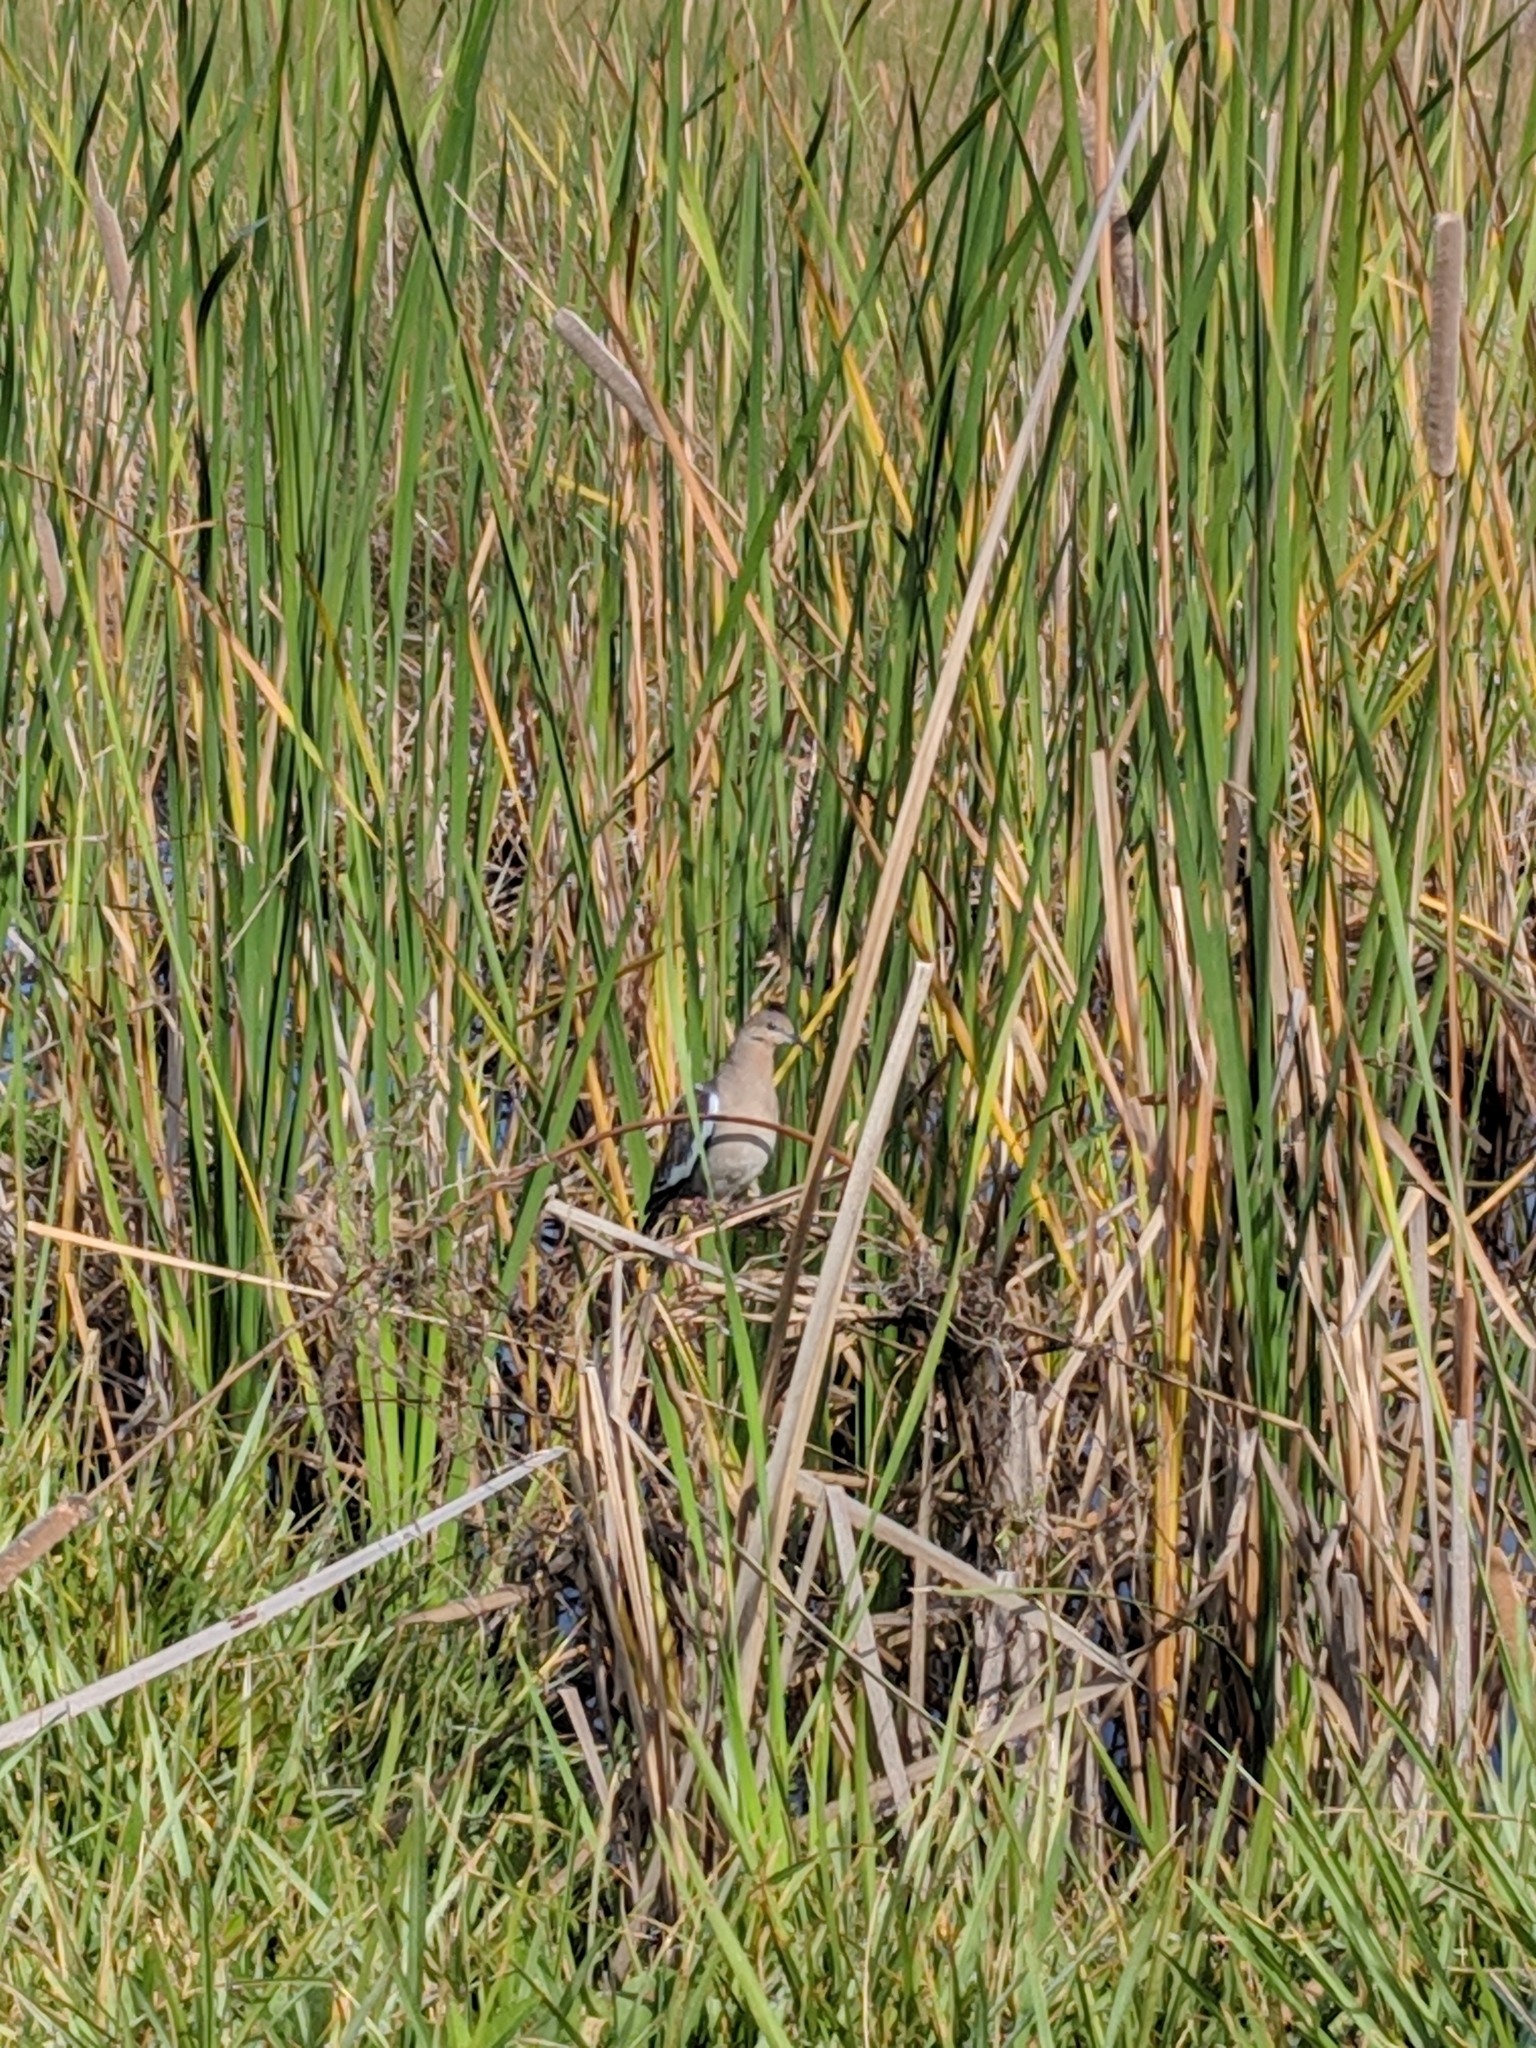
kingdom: Animalia
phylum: Chordata
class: Aves
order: Columbiformes
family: Columbidae
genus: Zenaida
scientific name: Zenaida asiatica
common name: White-winged dove
